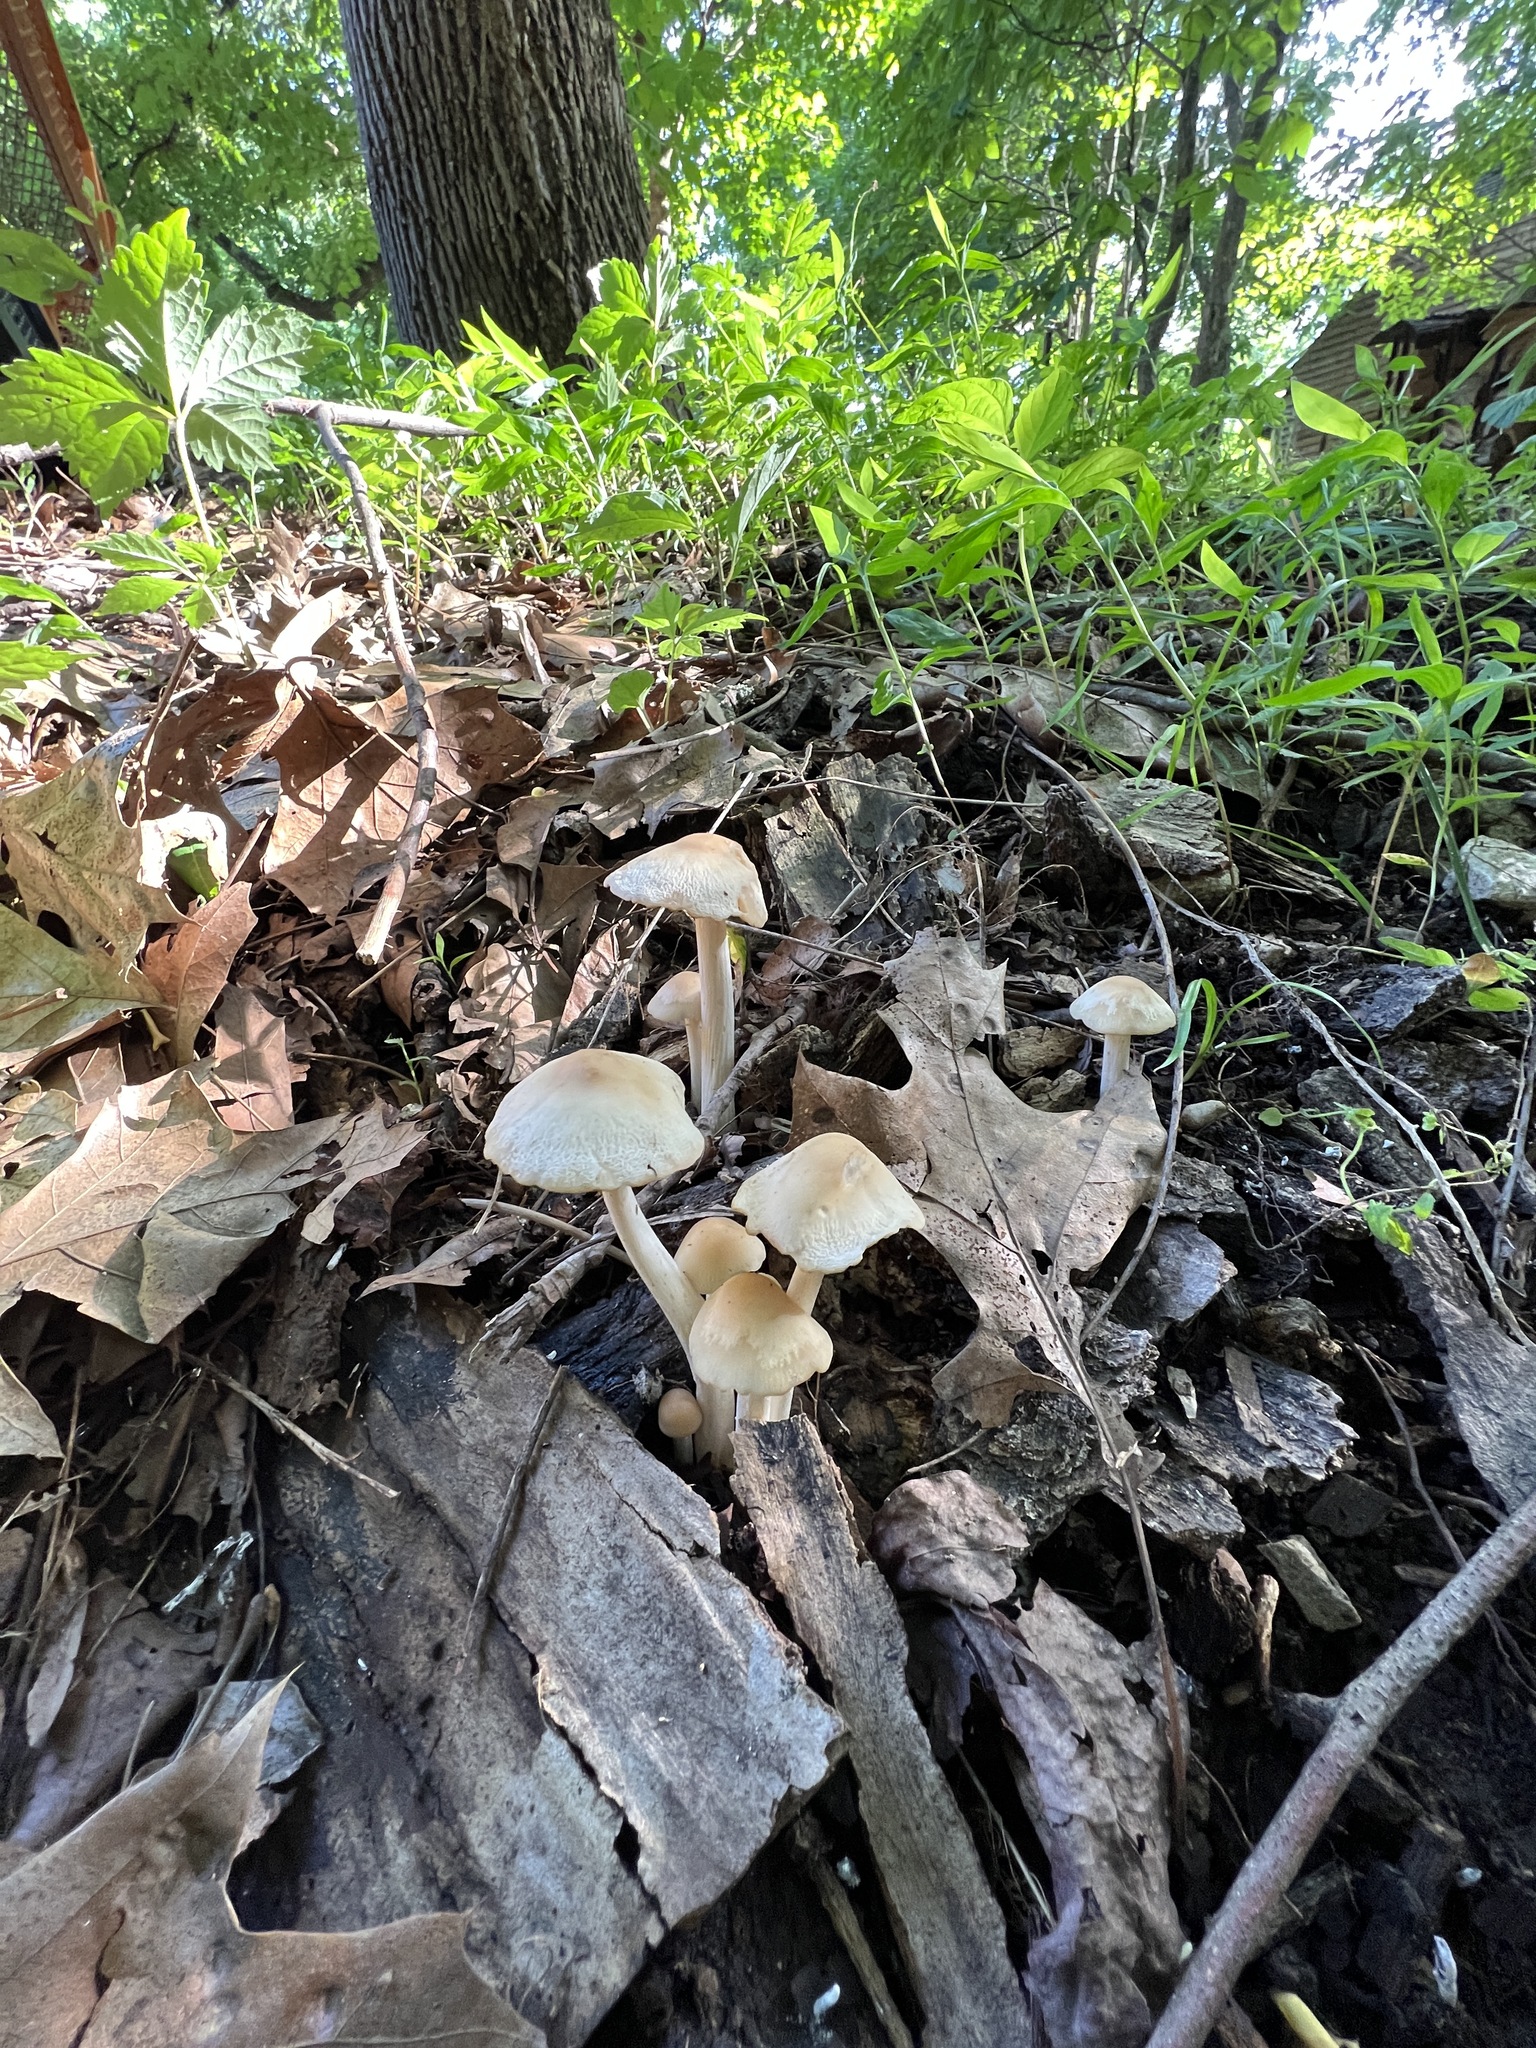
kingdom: Fungi
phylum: Basidiomycota
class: Agaricomycetes
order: Agaricales
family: Inocybaceae
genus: Pseudosperma
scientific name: Pseudosperma sororium
